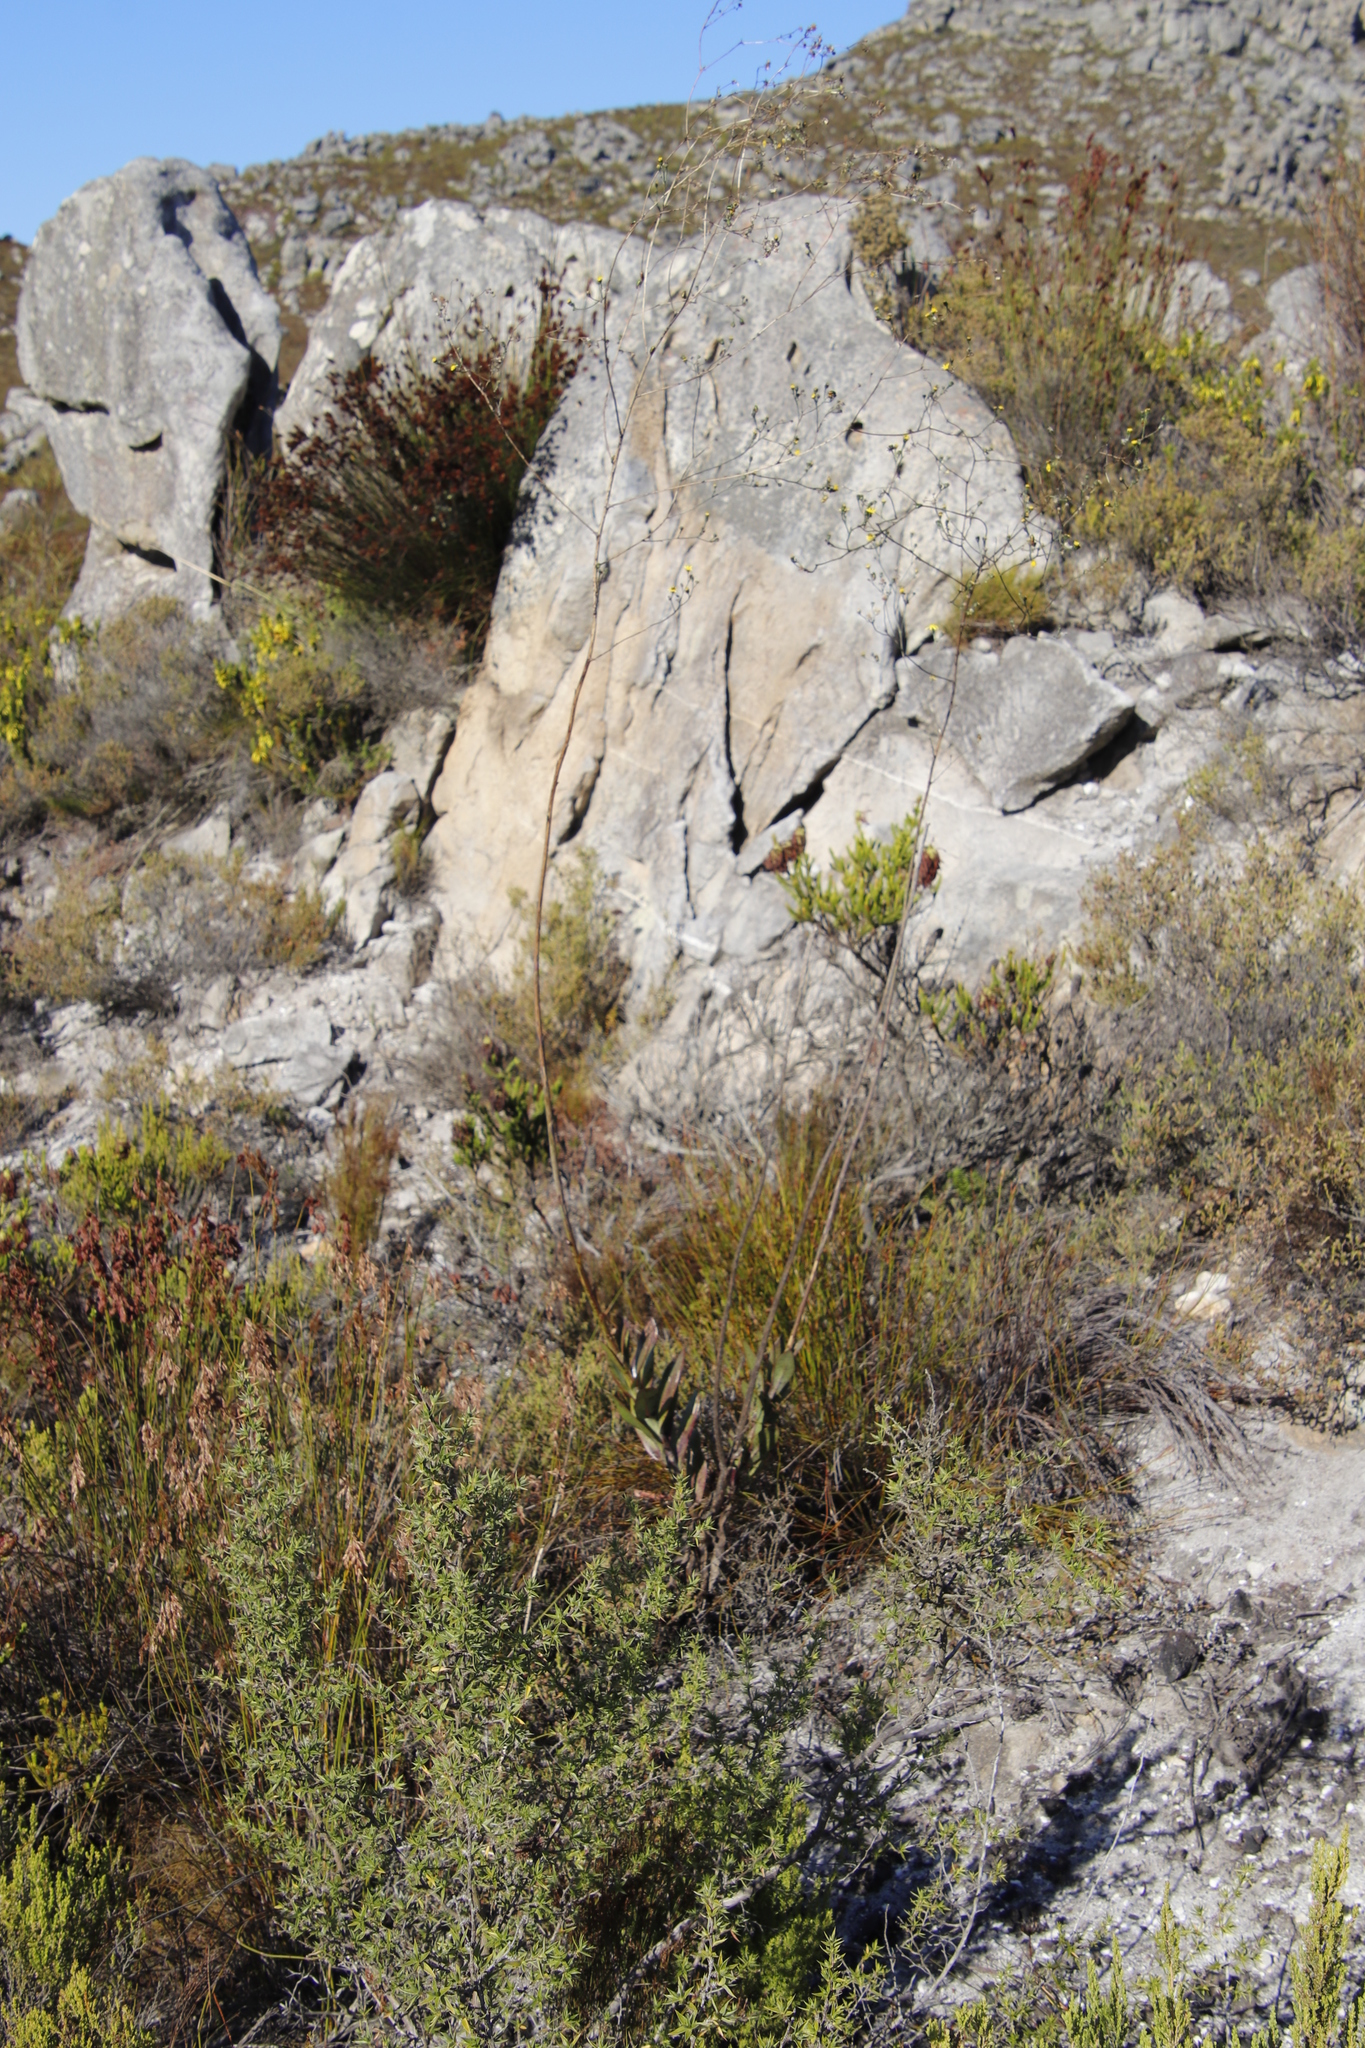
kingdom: Plantae
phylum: Tracheophyta
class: Magnoliopsida
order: Asterales
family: Asteraceae
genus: Othonna
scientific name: Othonna quinquedentata
